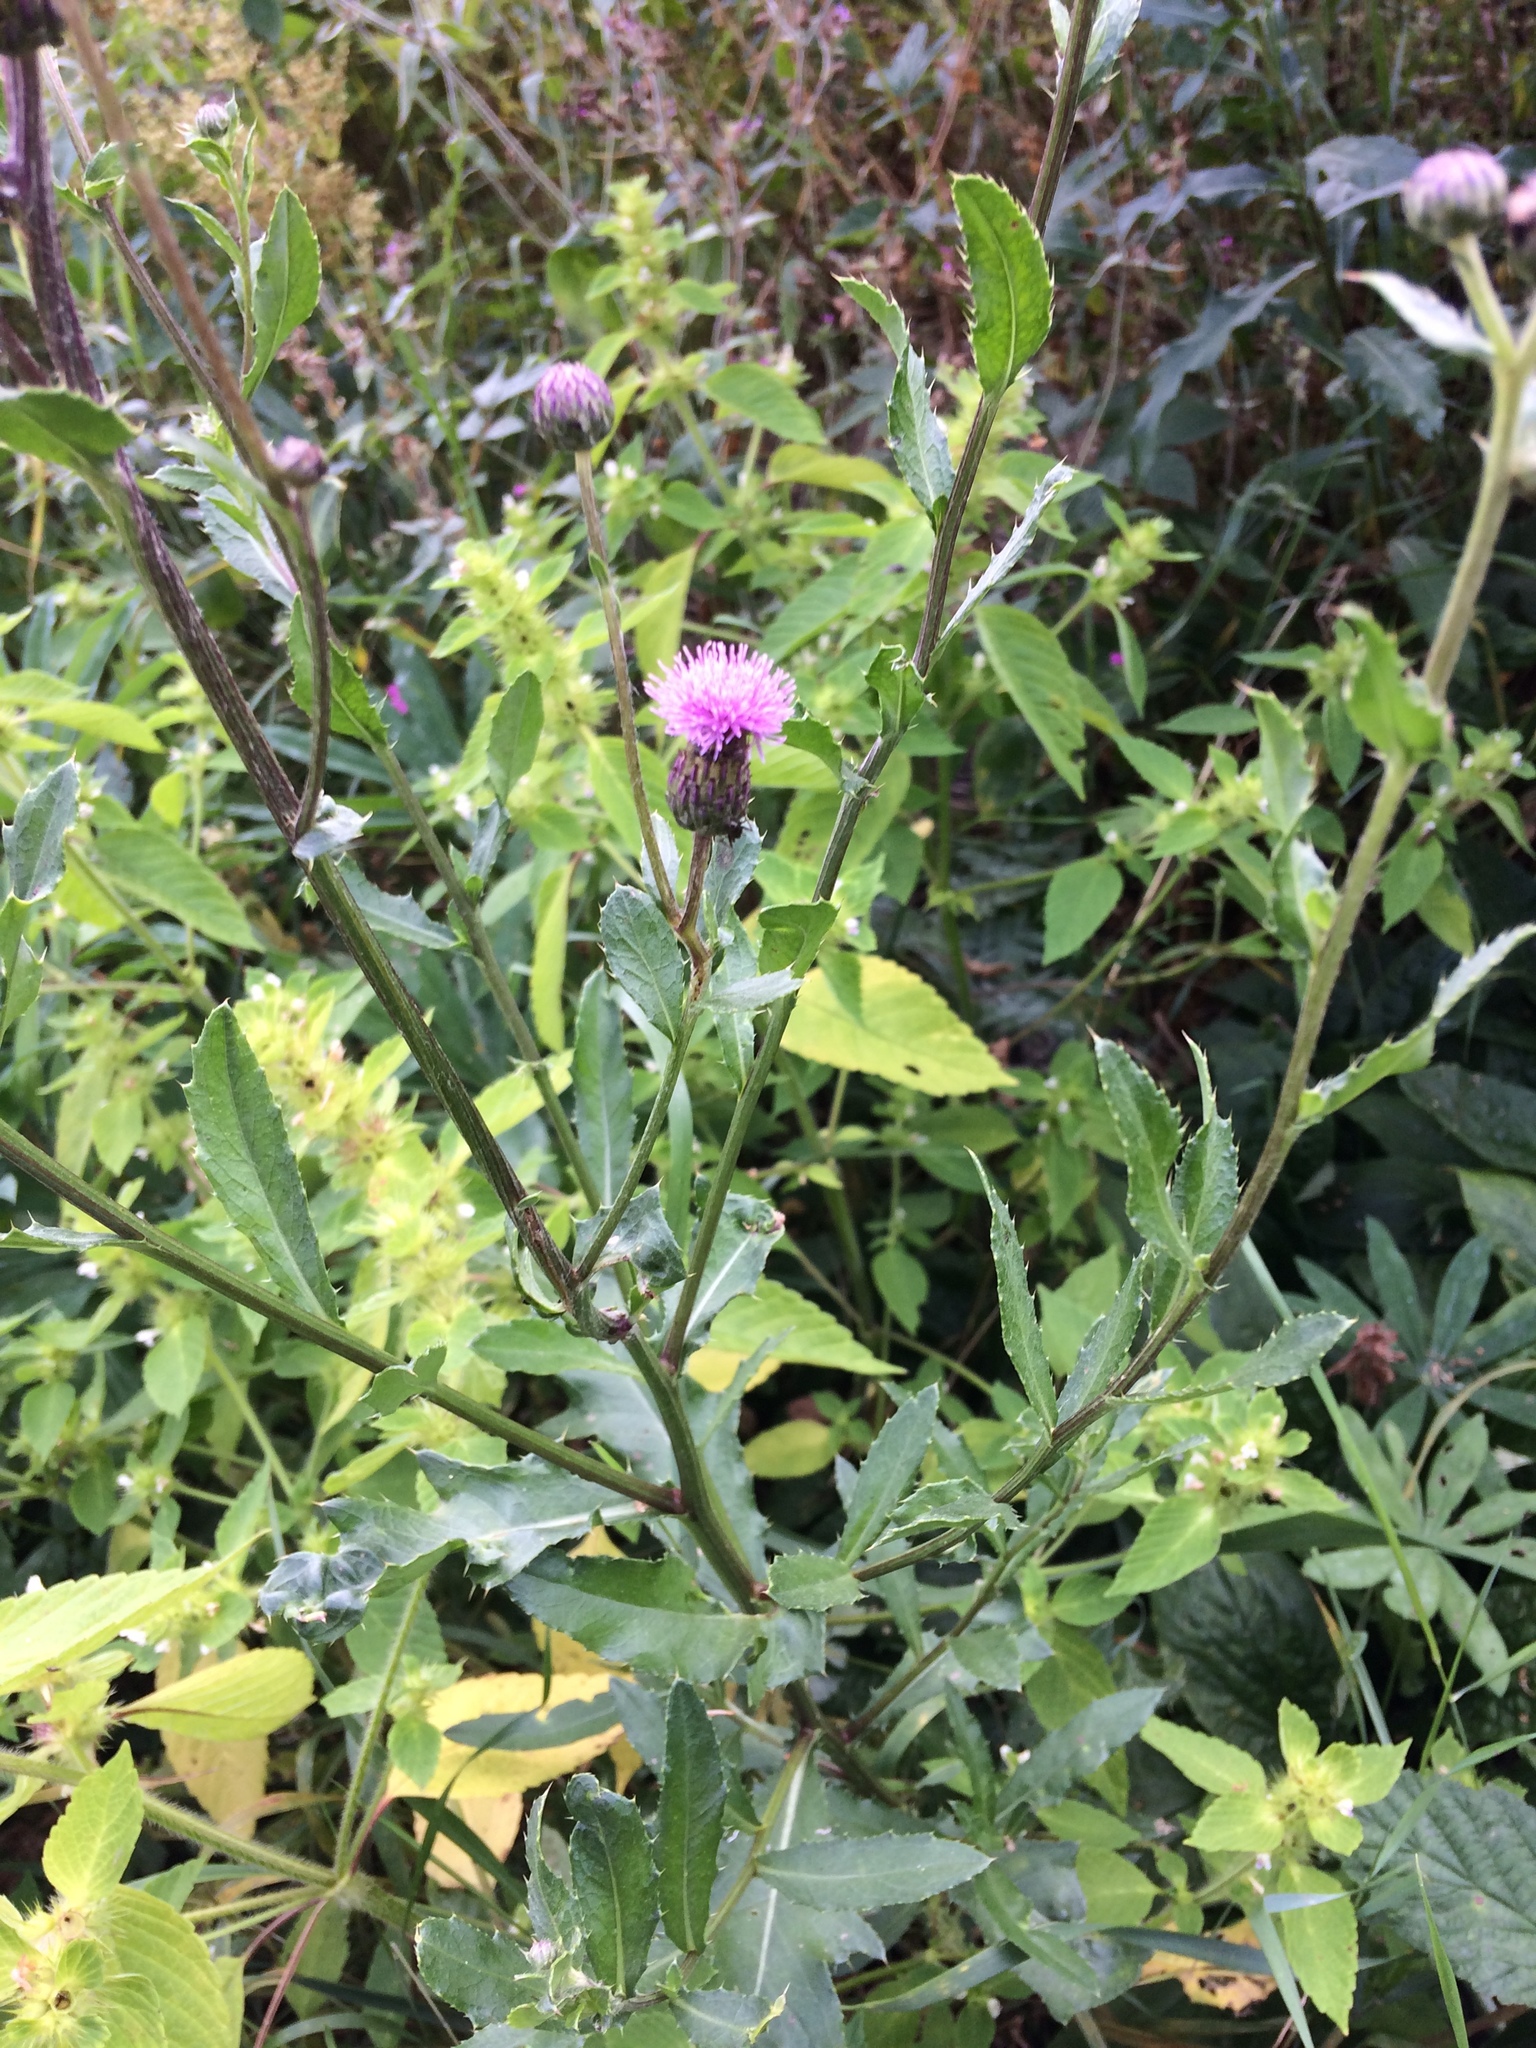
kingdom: Plantae
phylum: Tracheophyta
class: Magnoliopsida
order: Asterales
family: Asteraceae
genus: Cirsium
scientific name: Cirsium arvense
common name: Creeping thistle
